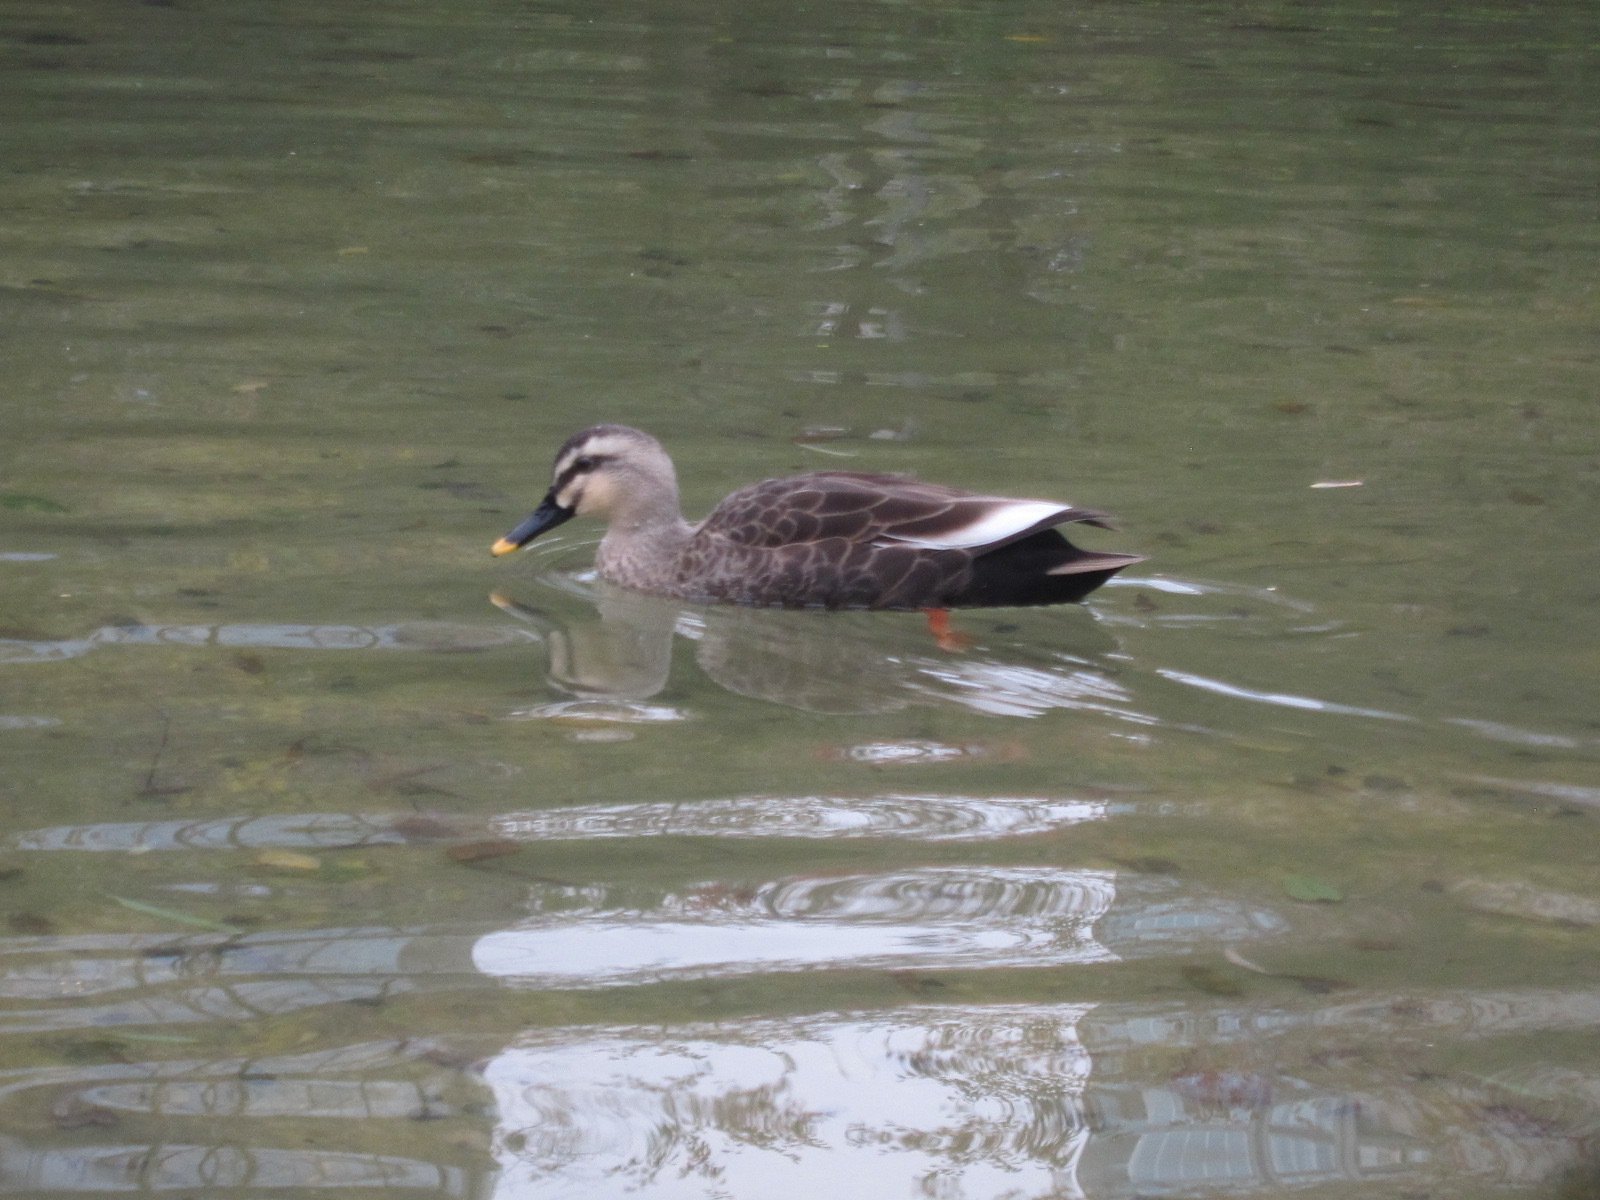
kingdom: Animalia
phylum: Chordata
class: Aves
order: Anseriformes
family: Anatidae
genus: Anas
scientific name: Anas zonorhyncha
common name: Eastern spot-billed duck
